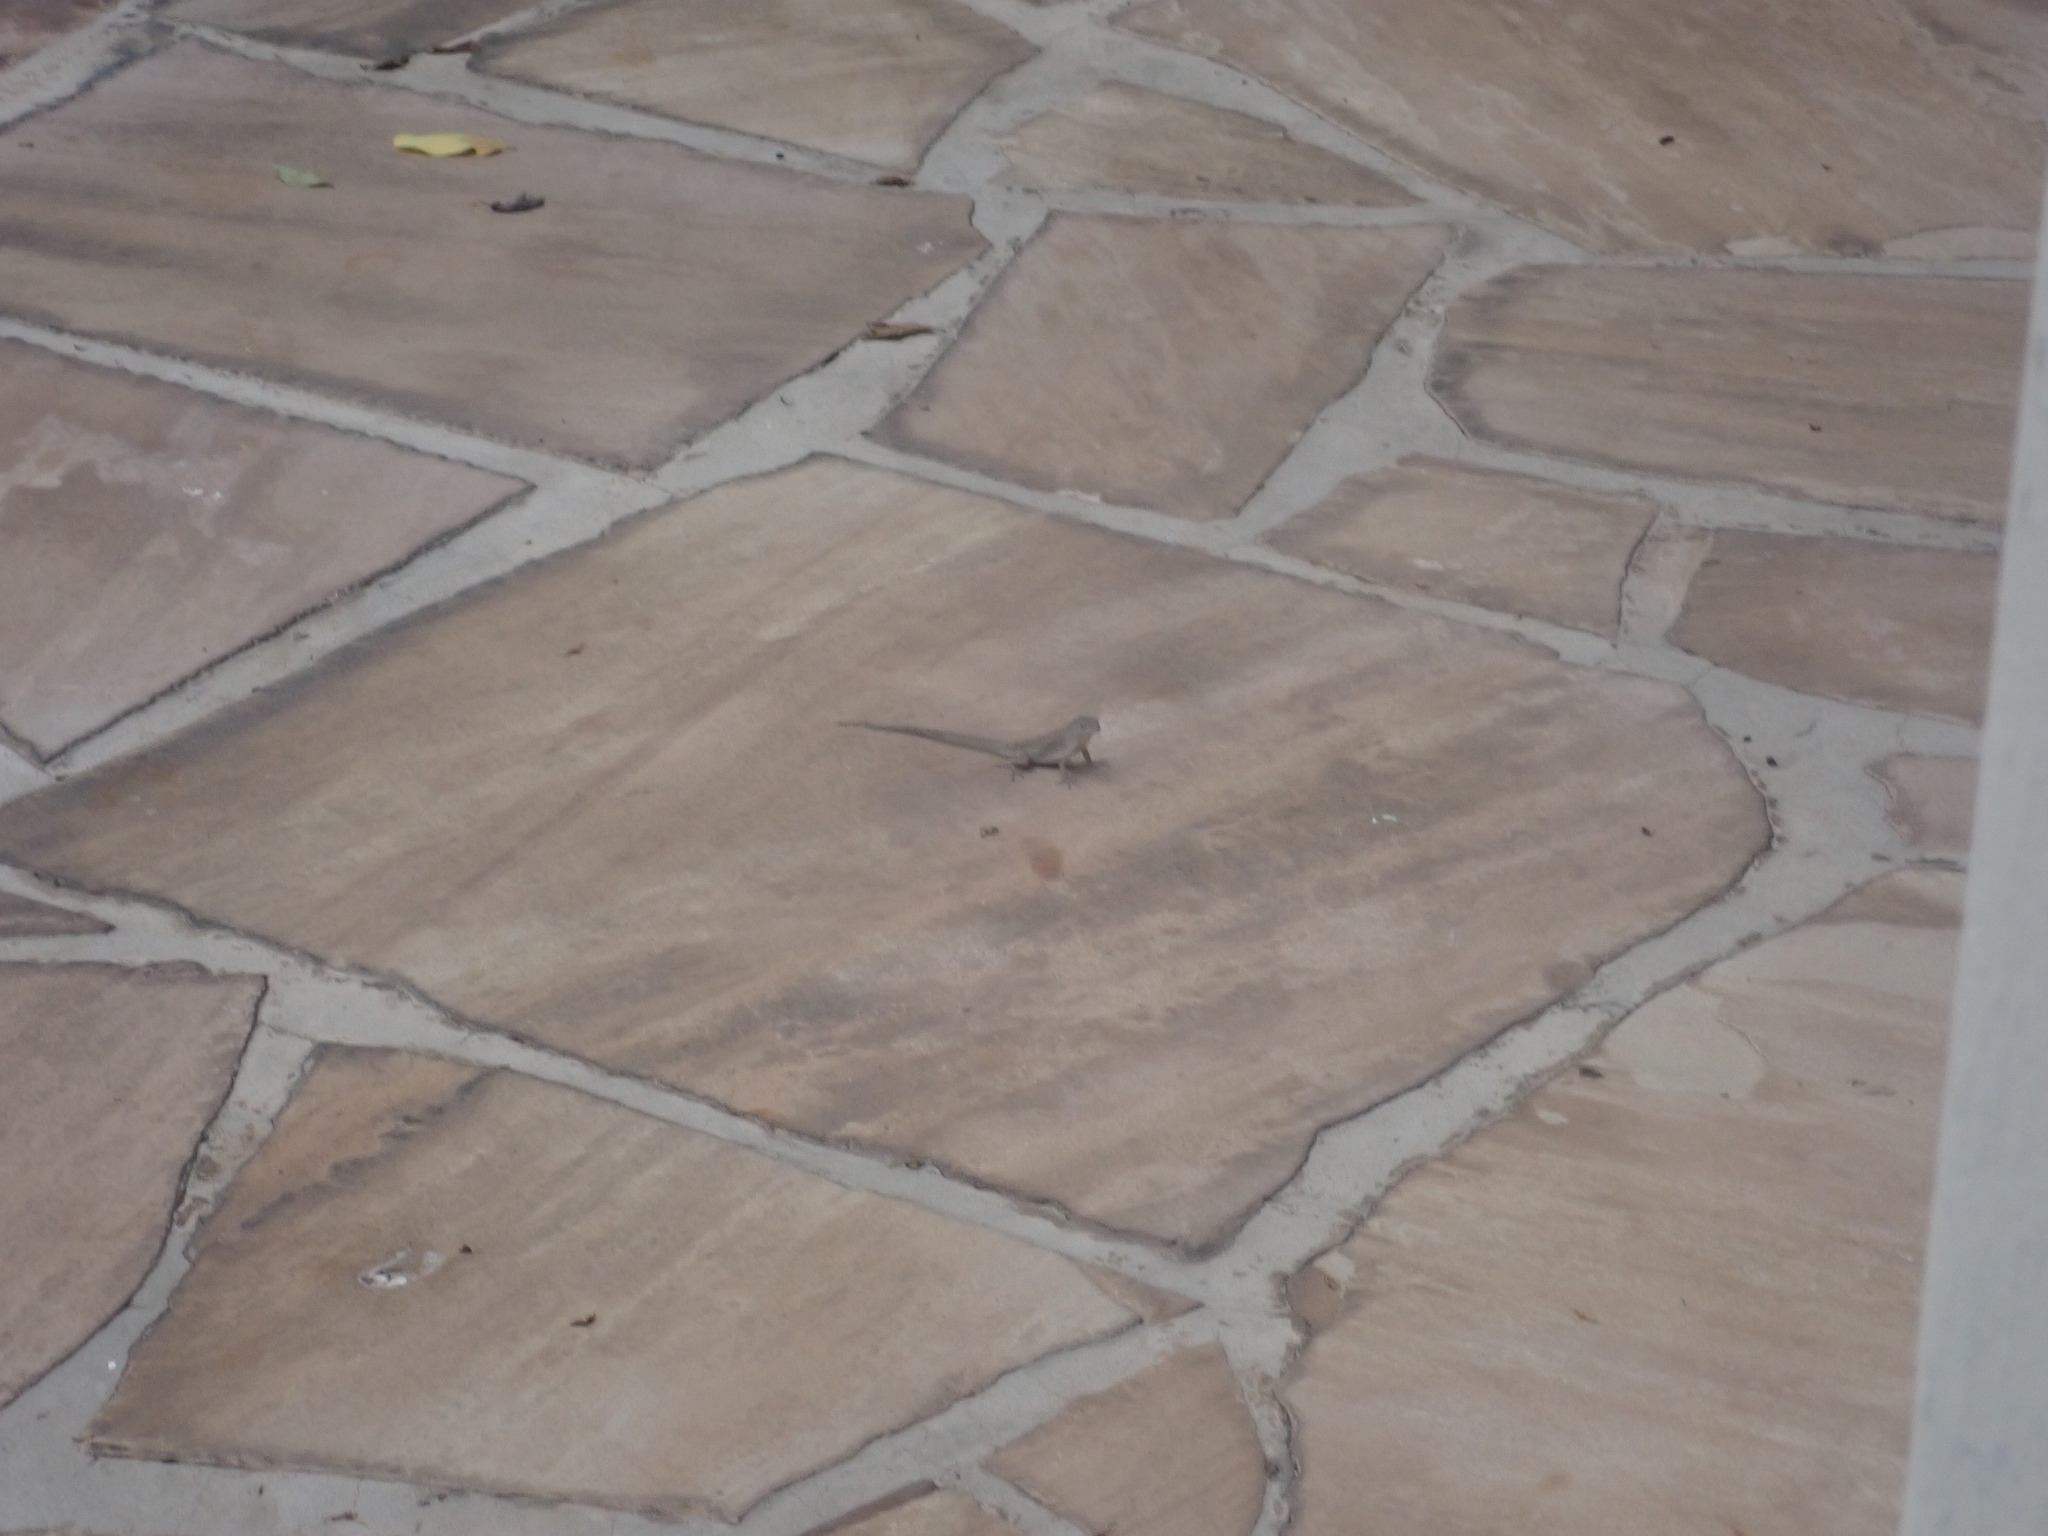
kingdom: Animalia
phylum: Chordata
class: Squamata
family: Dactyloidae
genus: Anolis
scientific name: Anolis sagrei
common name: Brown anole
